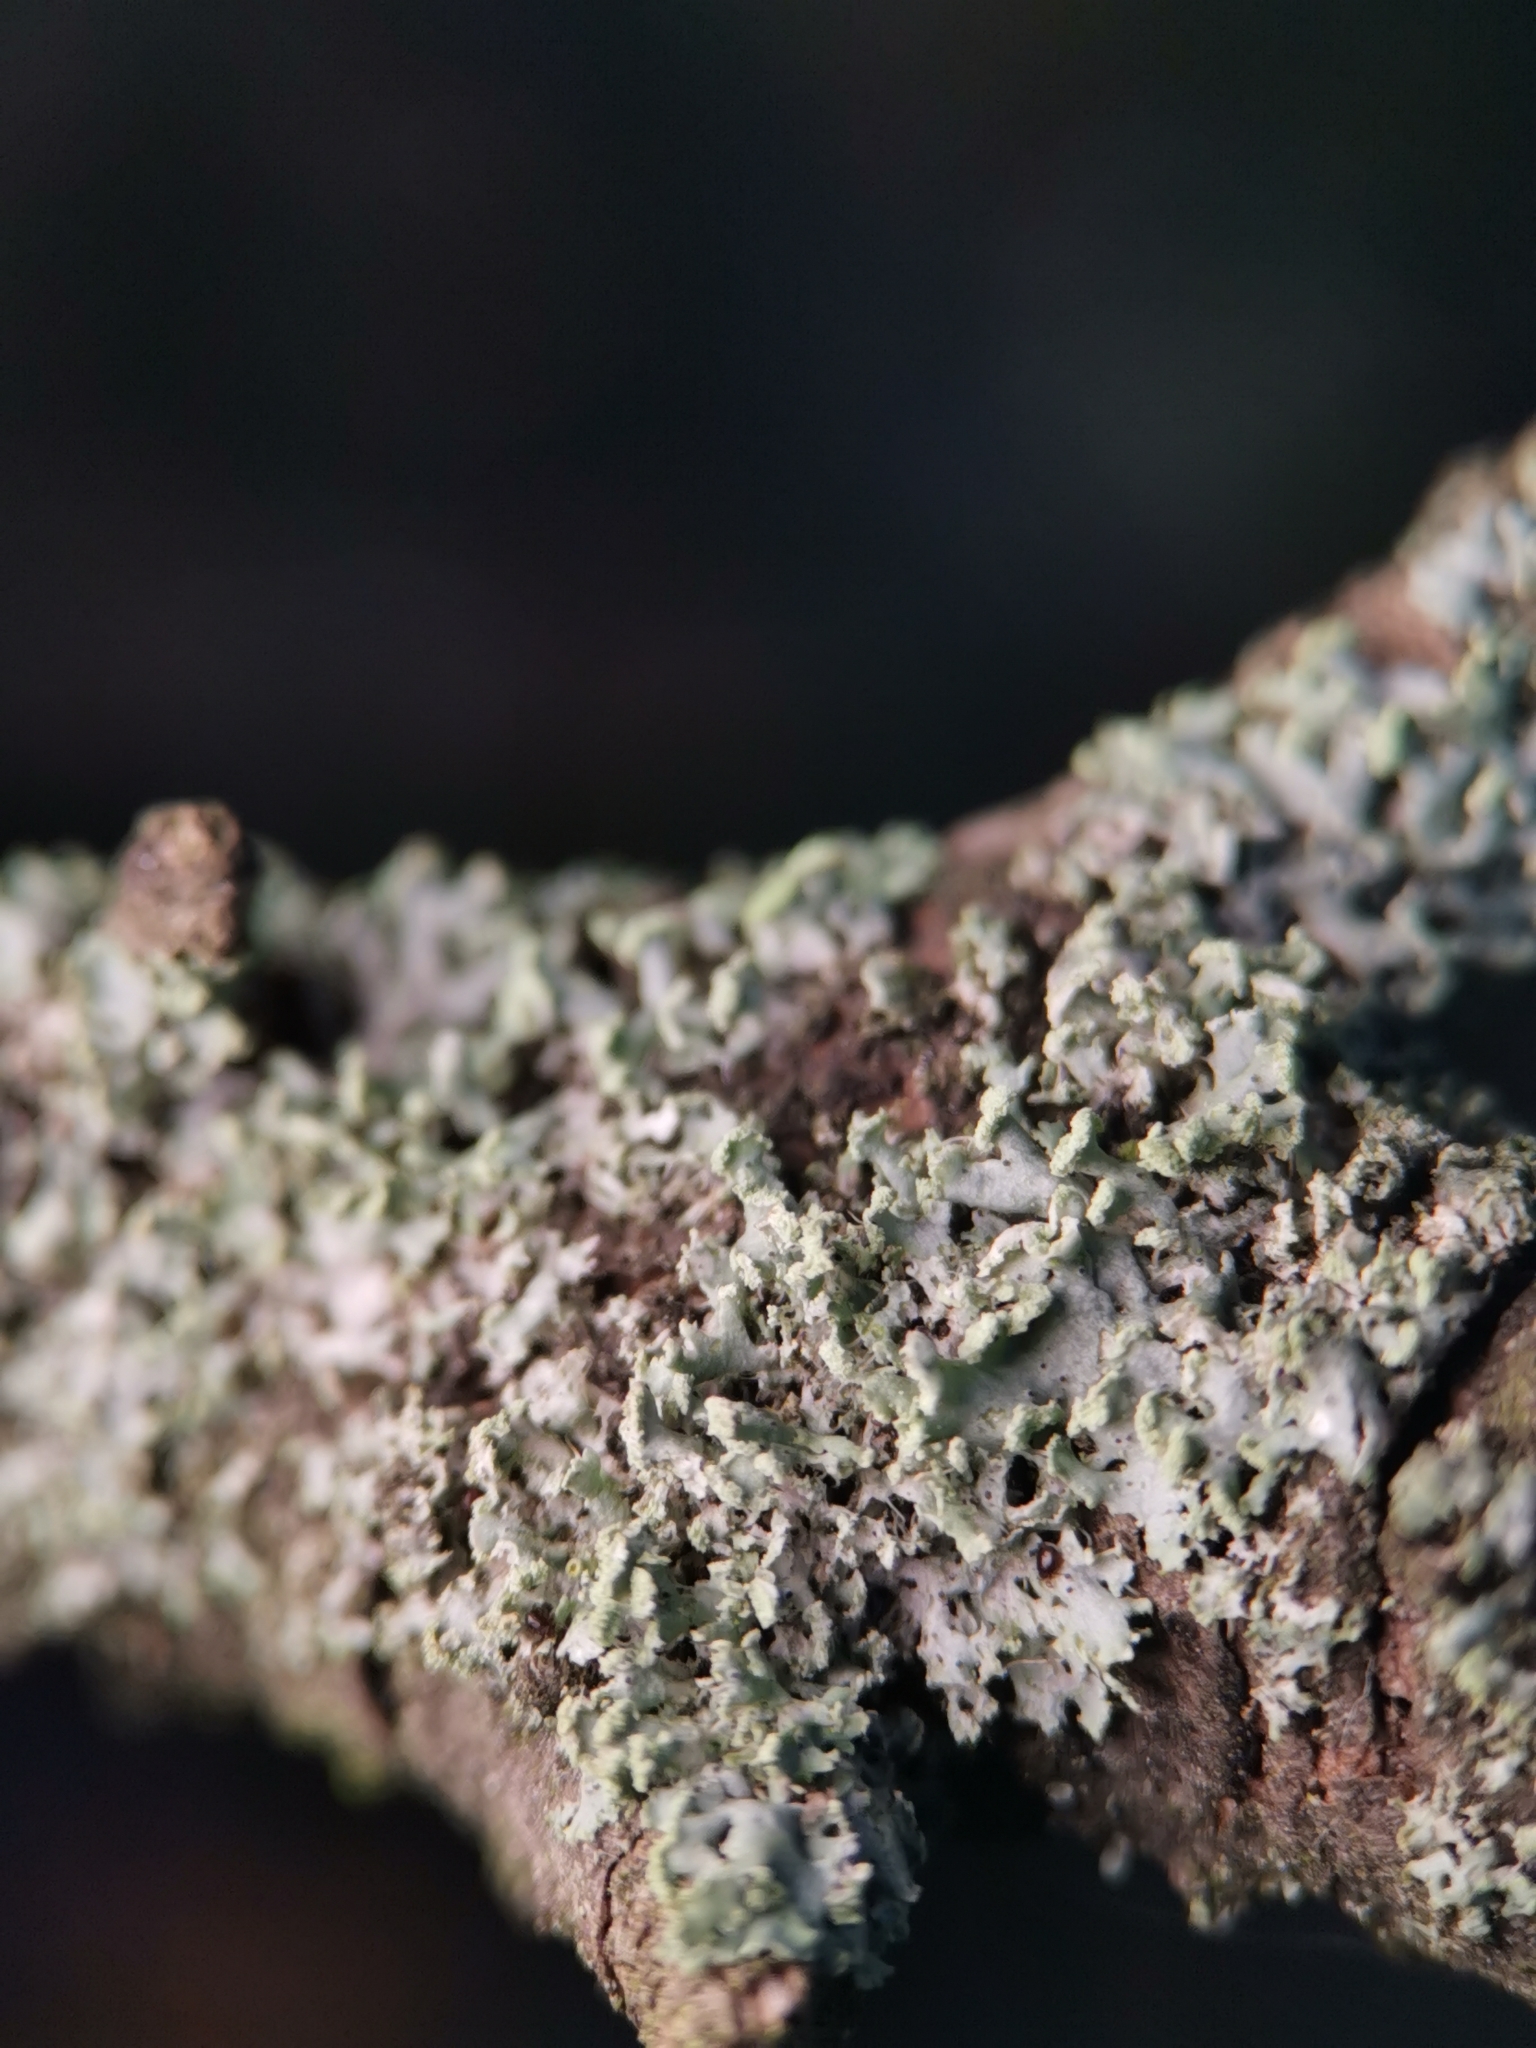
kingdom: Fungi
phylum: Ascomycota
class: Lecanoromycetes
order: Caliciales
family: Physciaceae
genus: Physcia
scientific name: Physcia tenella
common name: Fringed rosette lichen
